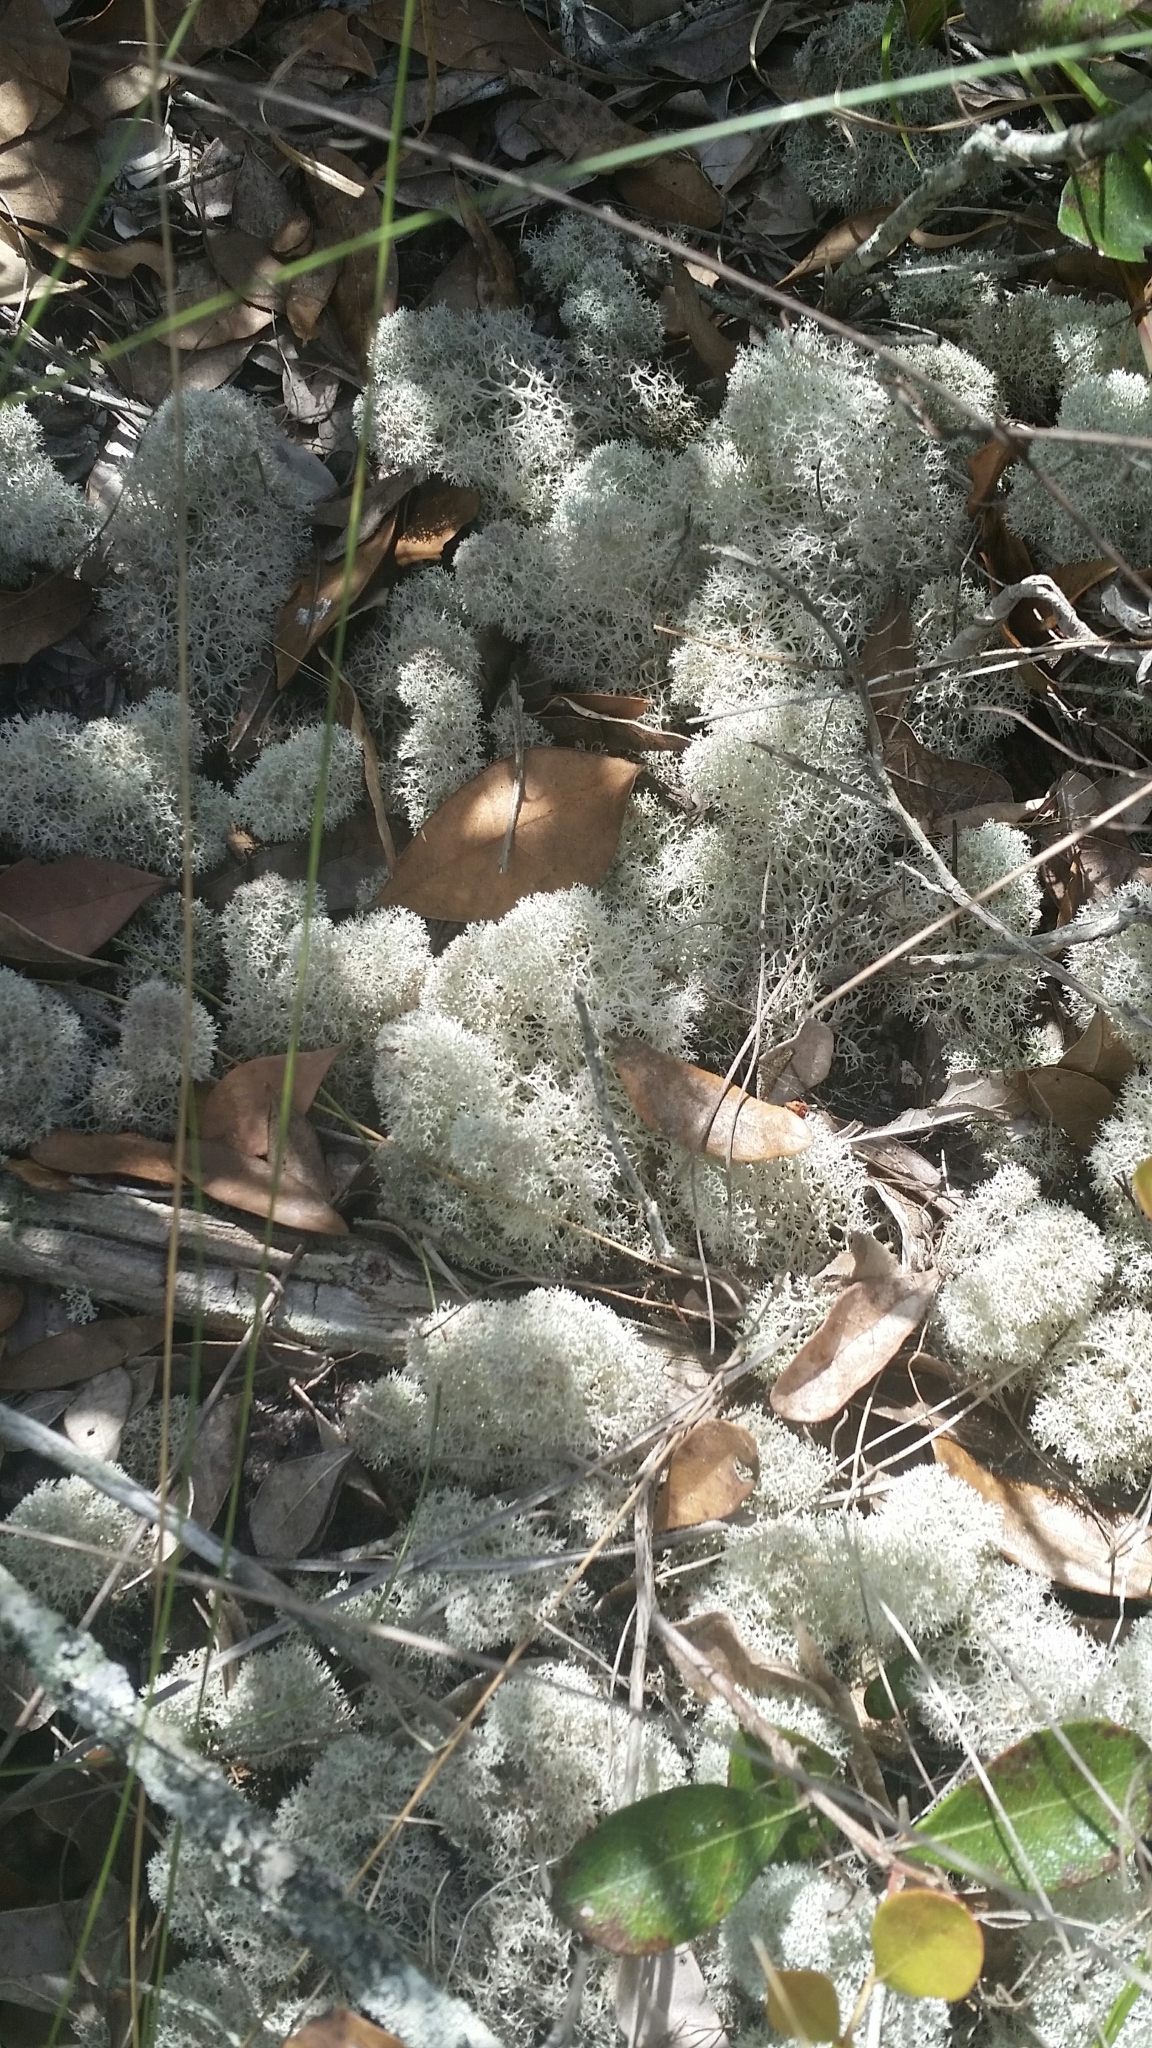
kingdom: Fungi
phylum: Ascomycota
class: Lecanoromycetes
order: Lecanorales
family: Cladoniaceae
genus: Cladonia
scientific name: Cladonia evansii
